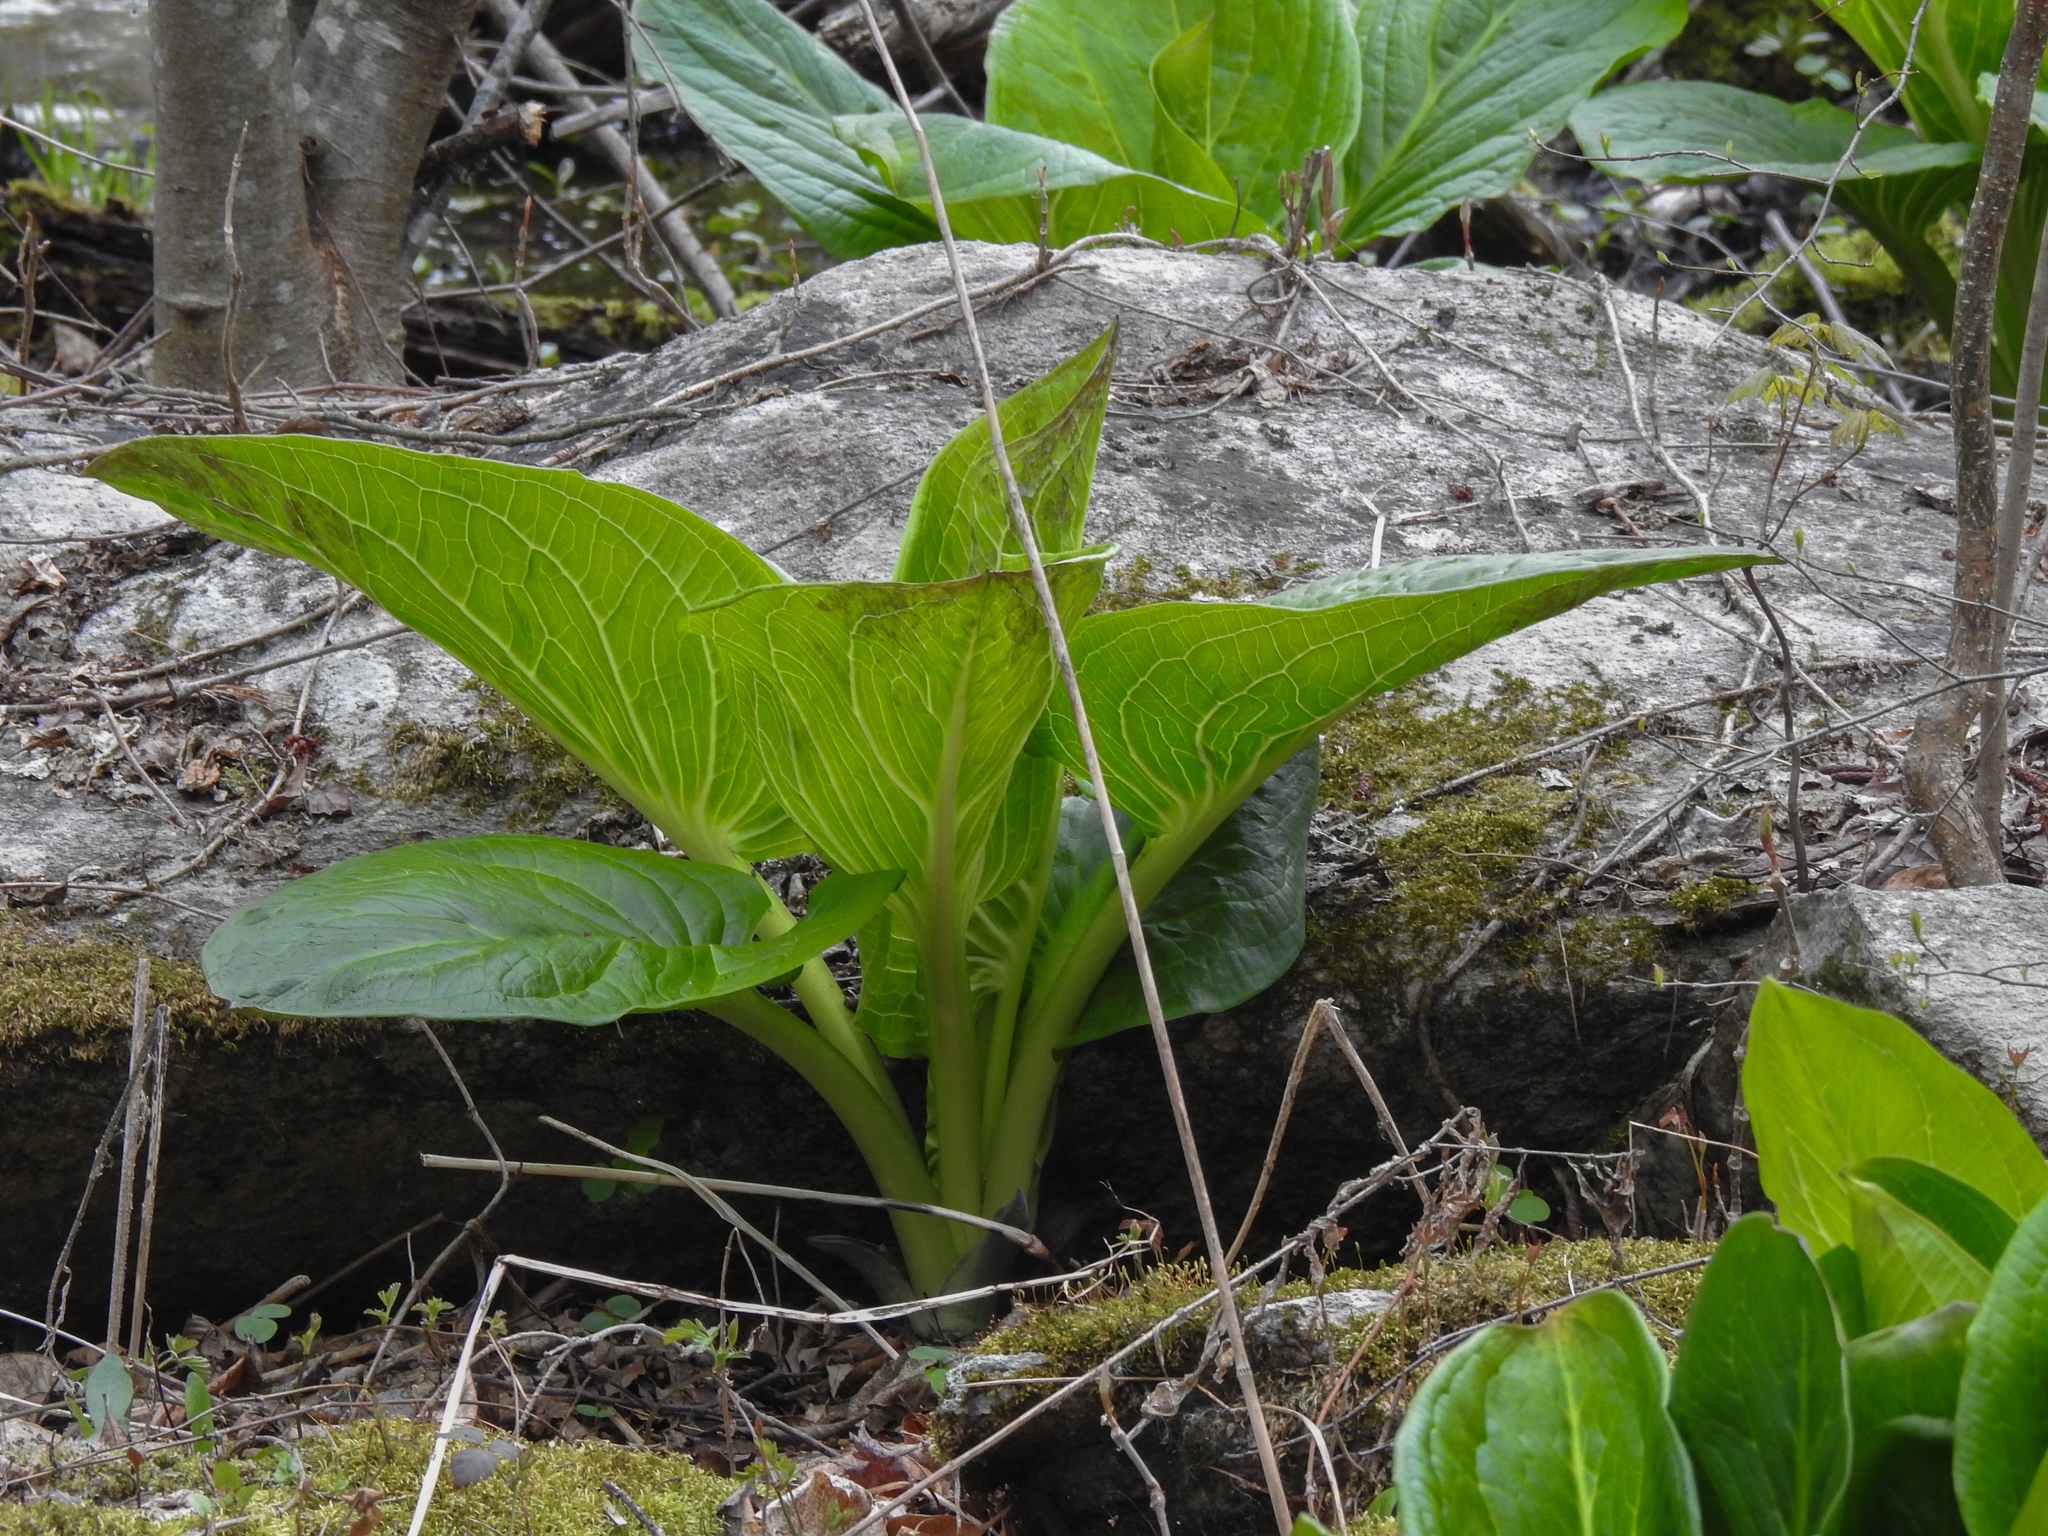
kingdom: Plantae
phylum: Tracheophyta
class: Liliopsida
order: Alismatales
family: Araceae
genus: Symplocarpus
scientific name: Symplocarpus foetidus
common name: Eastern skunk cabbage
